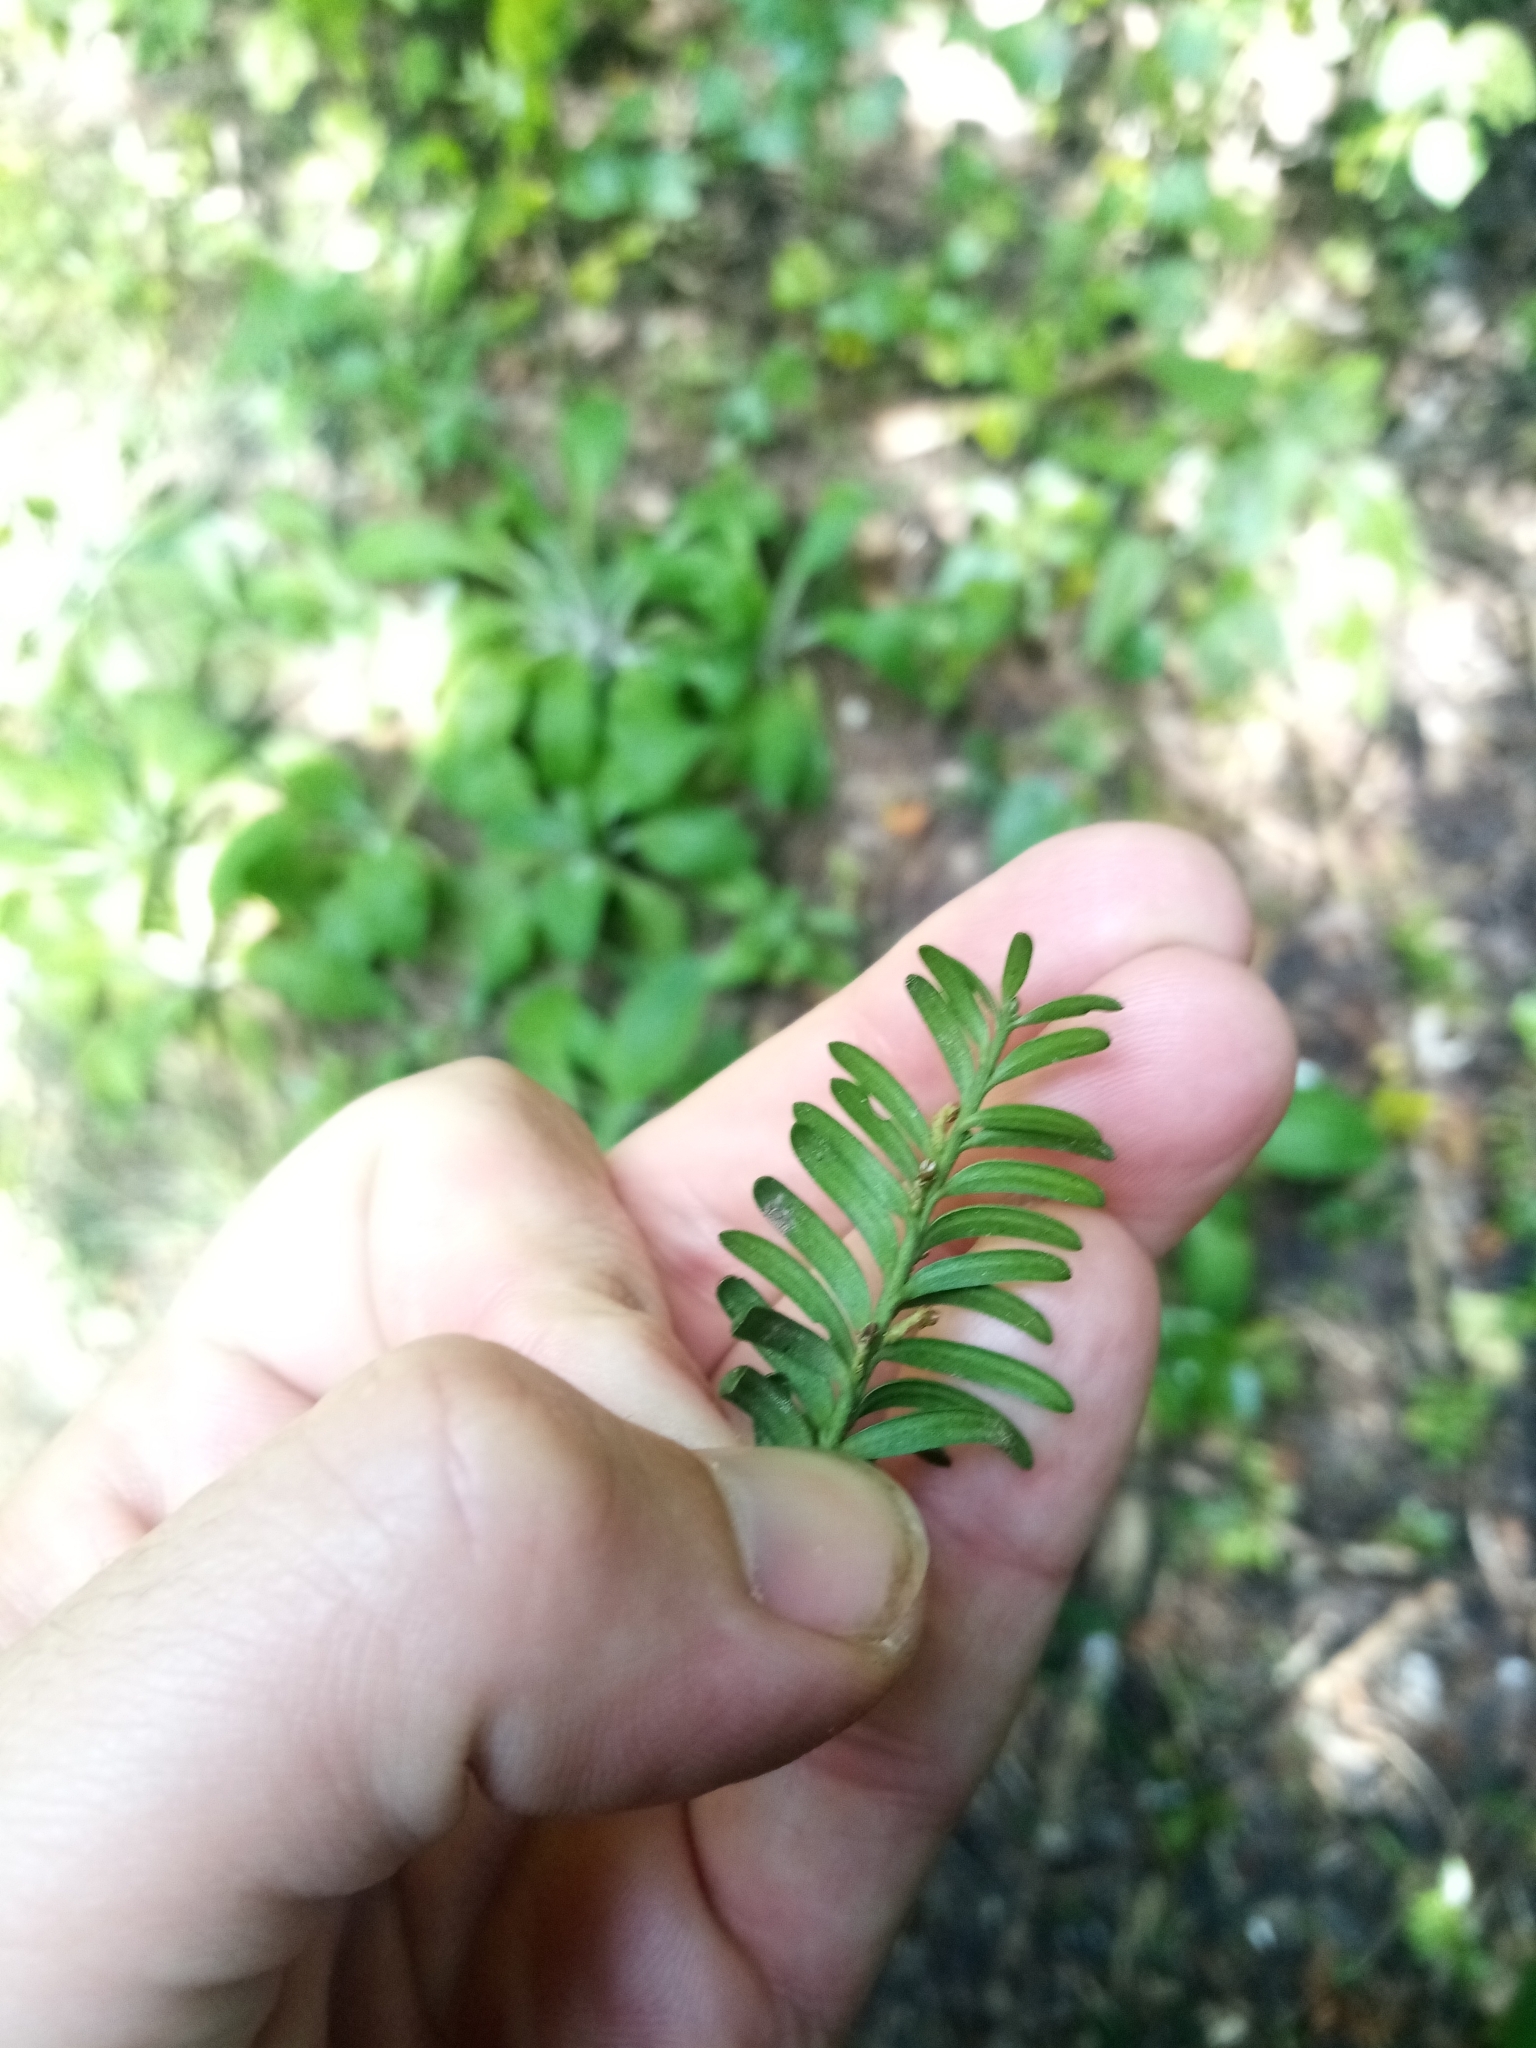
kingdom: Plantae
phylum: Tracheophyta
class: Pinopsida
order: Pinales
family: Podocarpaceae
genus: Prumnopitys
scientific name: Prumnopitys ferruginea
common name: Brown pine
